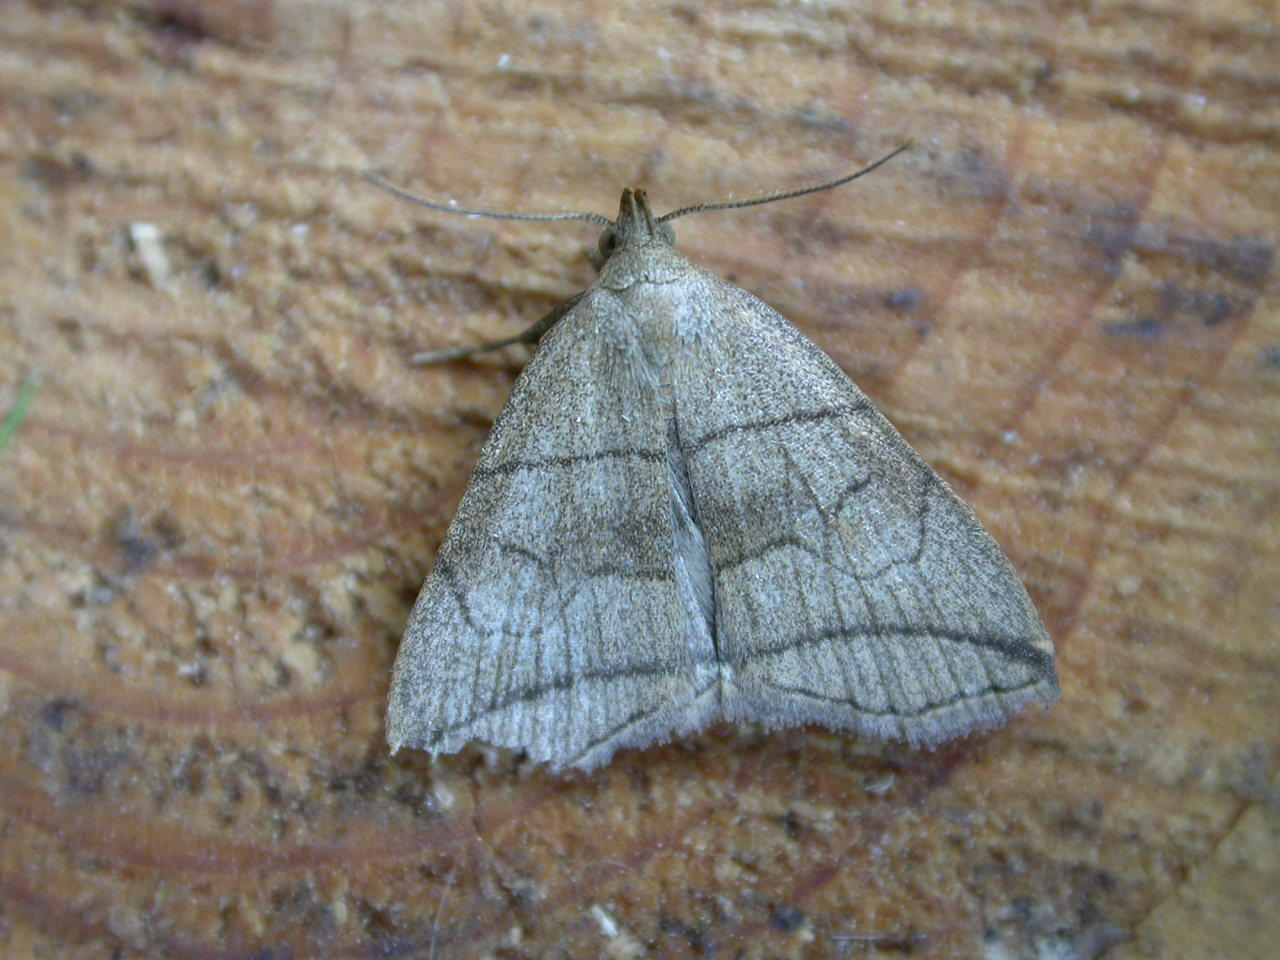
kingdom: Animalia
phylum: Arthropoda
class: Insecta
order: Lepidoptera
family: Erebidae
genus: Herminia
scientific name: Herminia grisealis
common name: Small fan-foot
